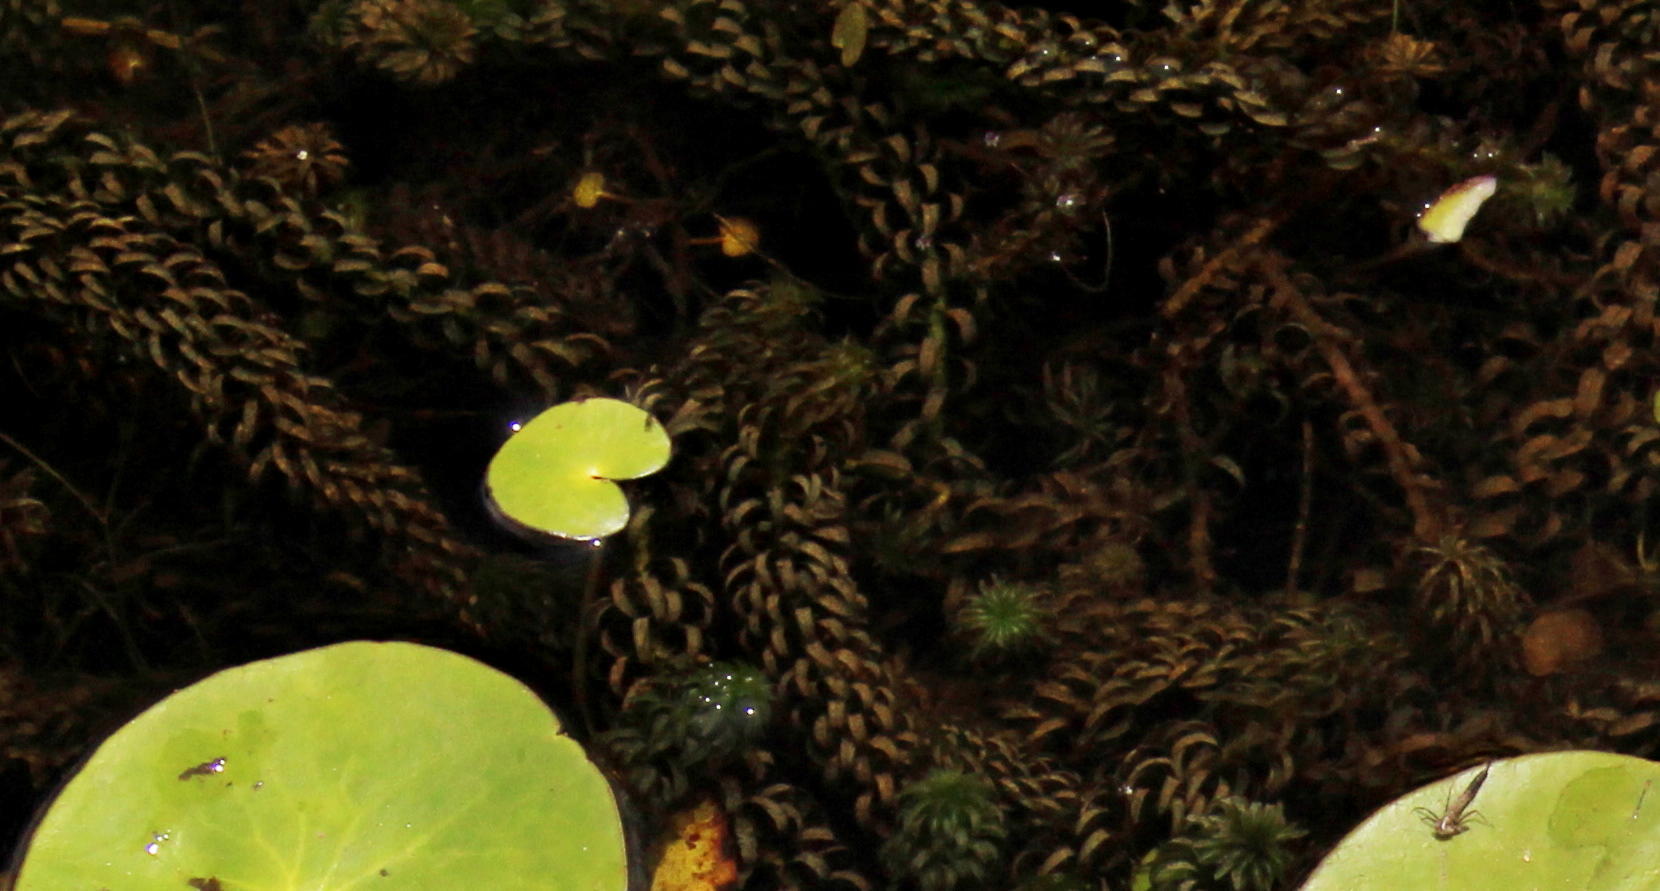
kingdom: Plantae
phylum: Tracheophyta
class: Liliopsida
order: Alismatales
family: Hydrocharitaceae
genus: Lagarosiphon
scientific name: Lagarosiphon major
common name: Curly waterweed
